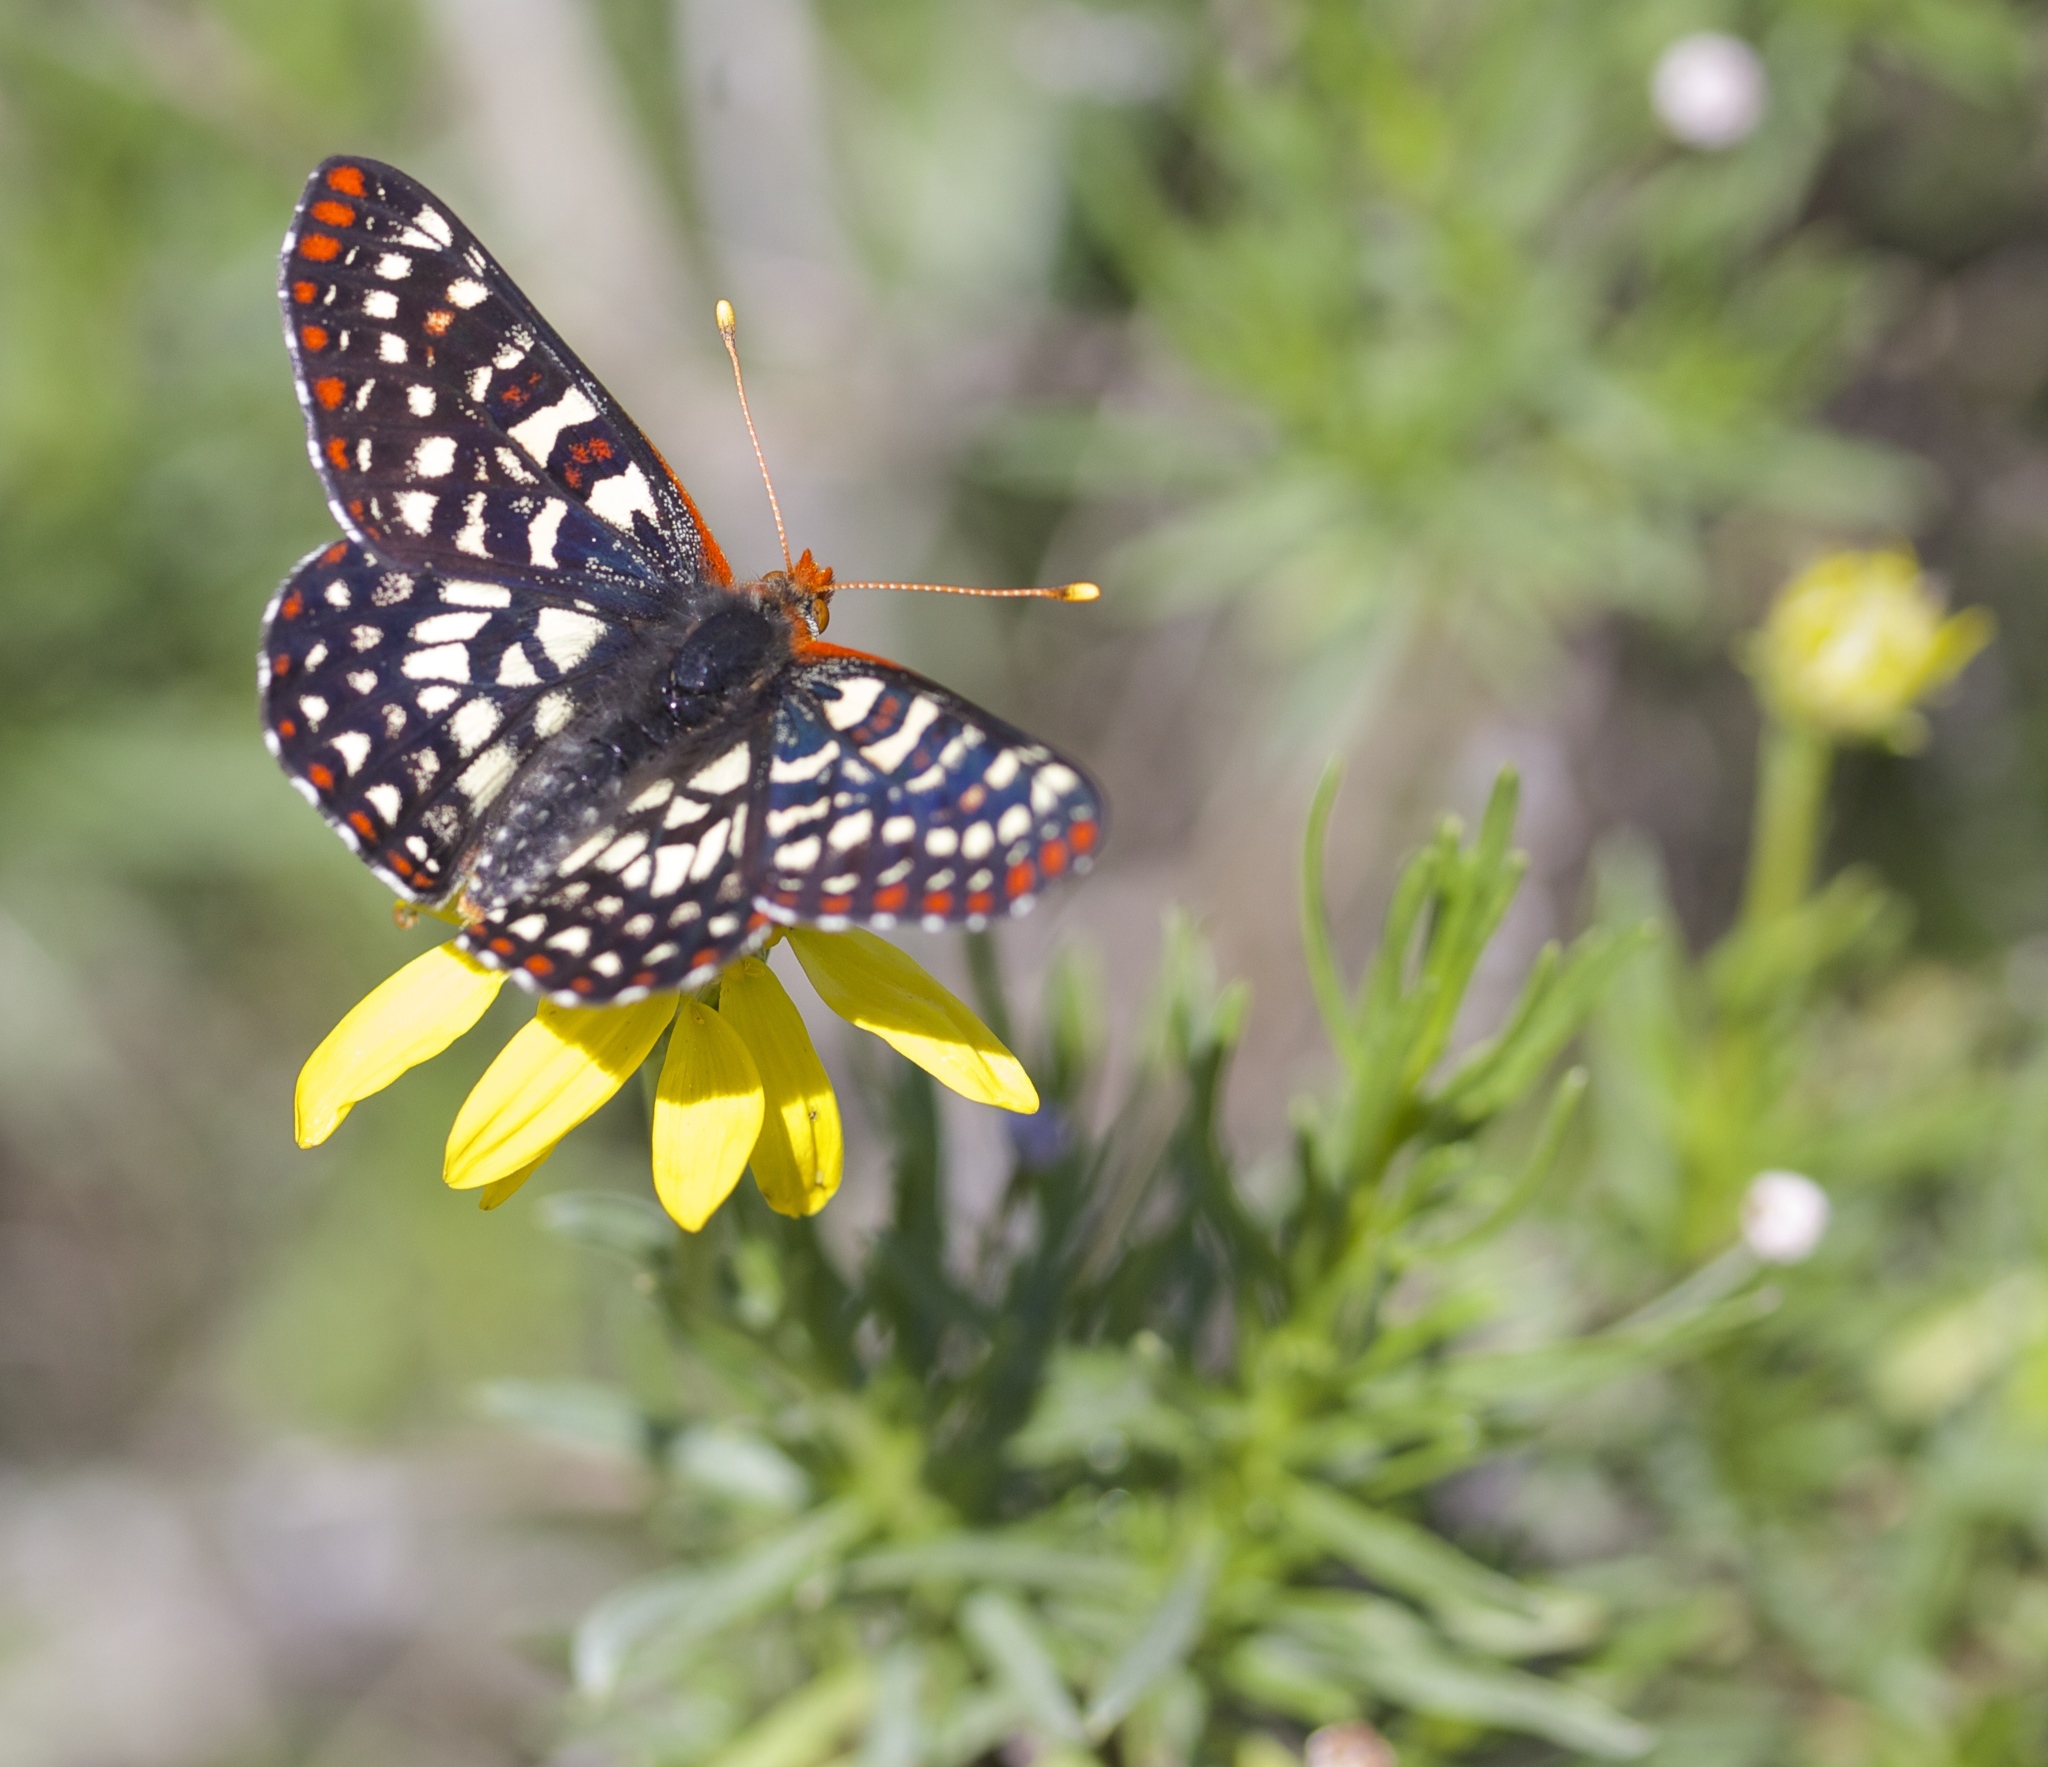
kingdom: Animalia
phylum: Arthropoda
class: Insecta
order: Lepidoptera
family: Nymphalidae
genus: Occidryas
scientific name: Occidryas chalcedona
